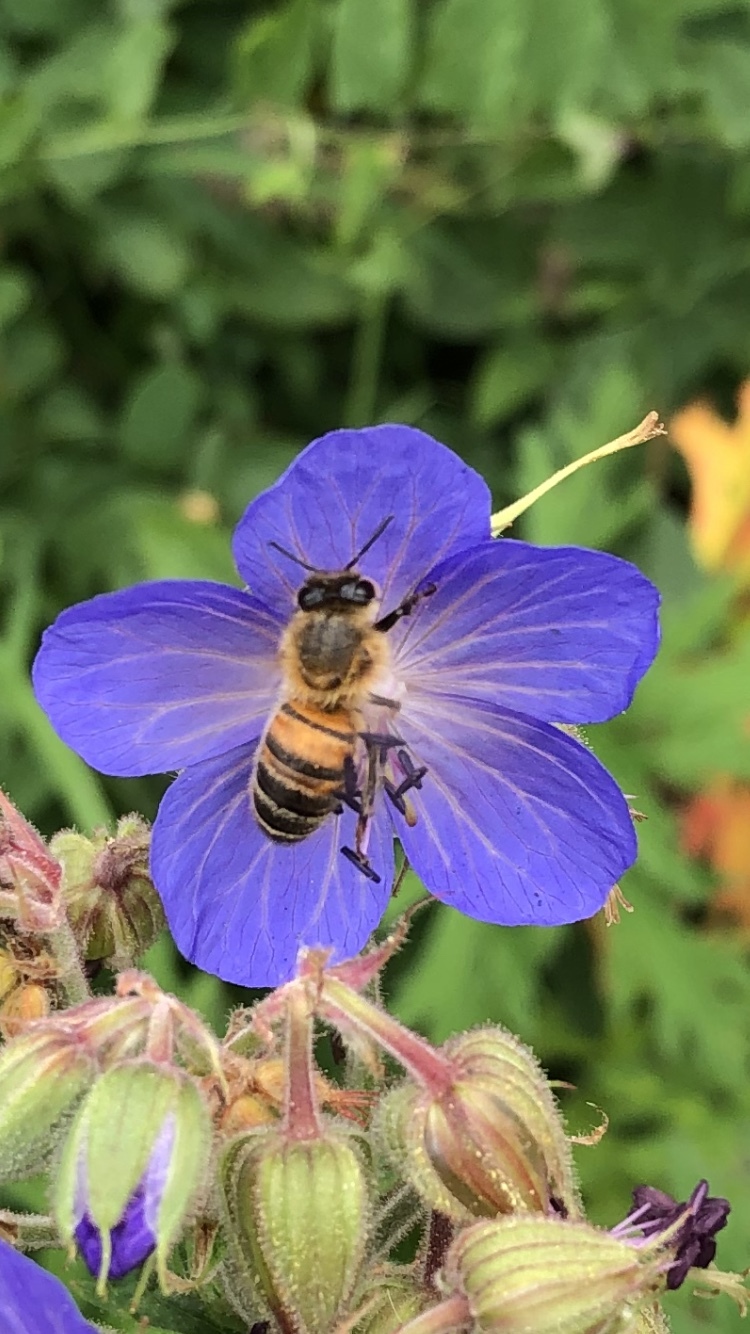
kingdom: Animalia
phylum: Arthropoda
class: Insecta
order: Hymenoptera
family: Apidae
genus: Apis
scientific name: Apis mellifera
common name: Honey bee
